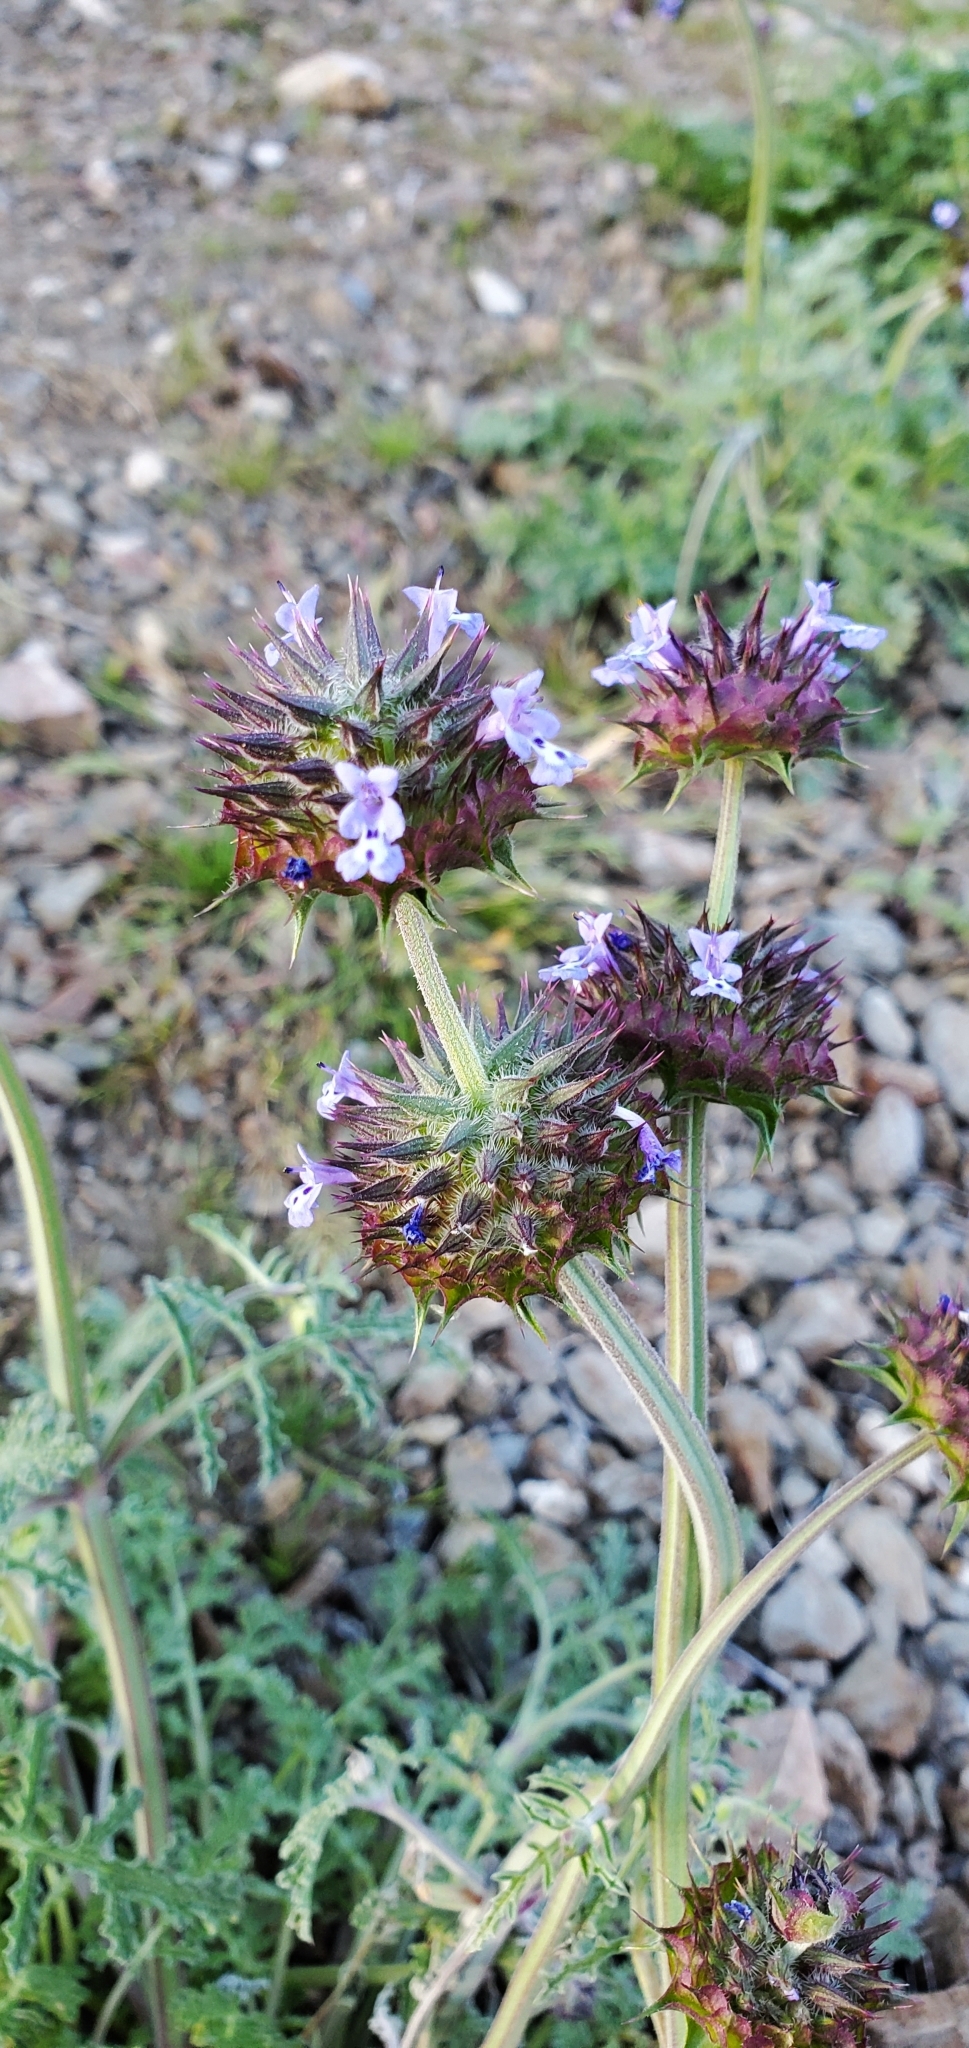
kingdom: Plantae
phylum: Tracheophyta
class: Magnoliopsida
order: Lamiales
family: Lamiaceae
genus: Salvia
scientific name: Salvia columbariae
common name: Chia
